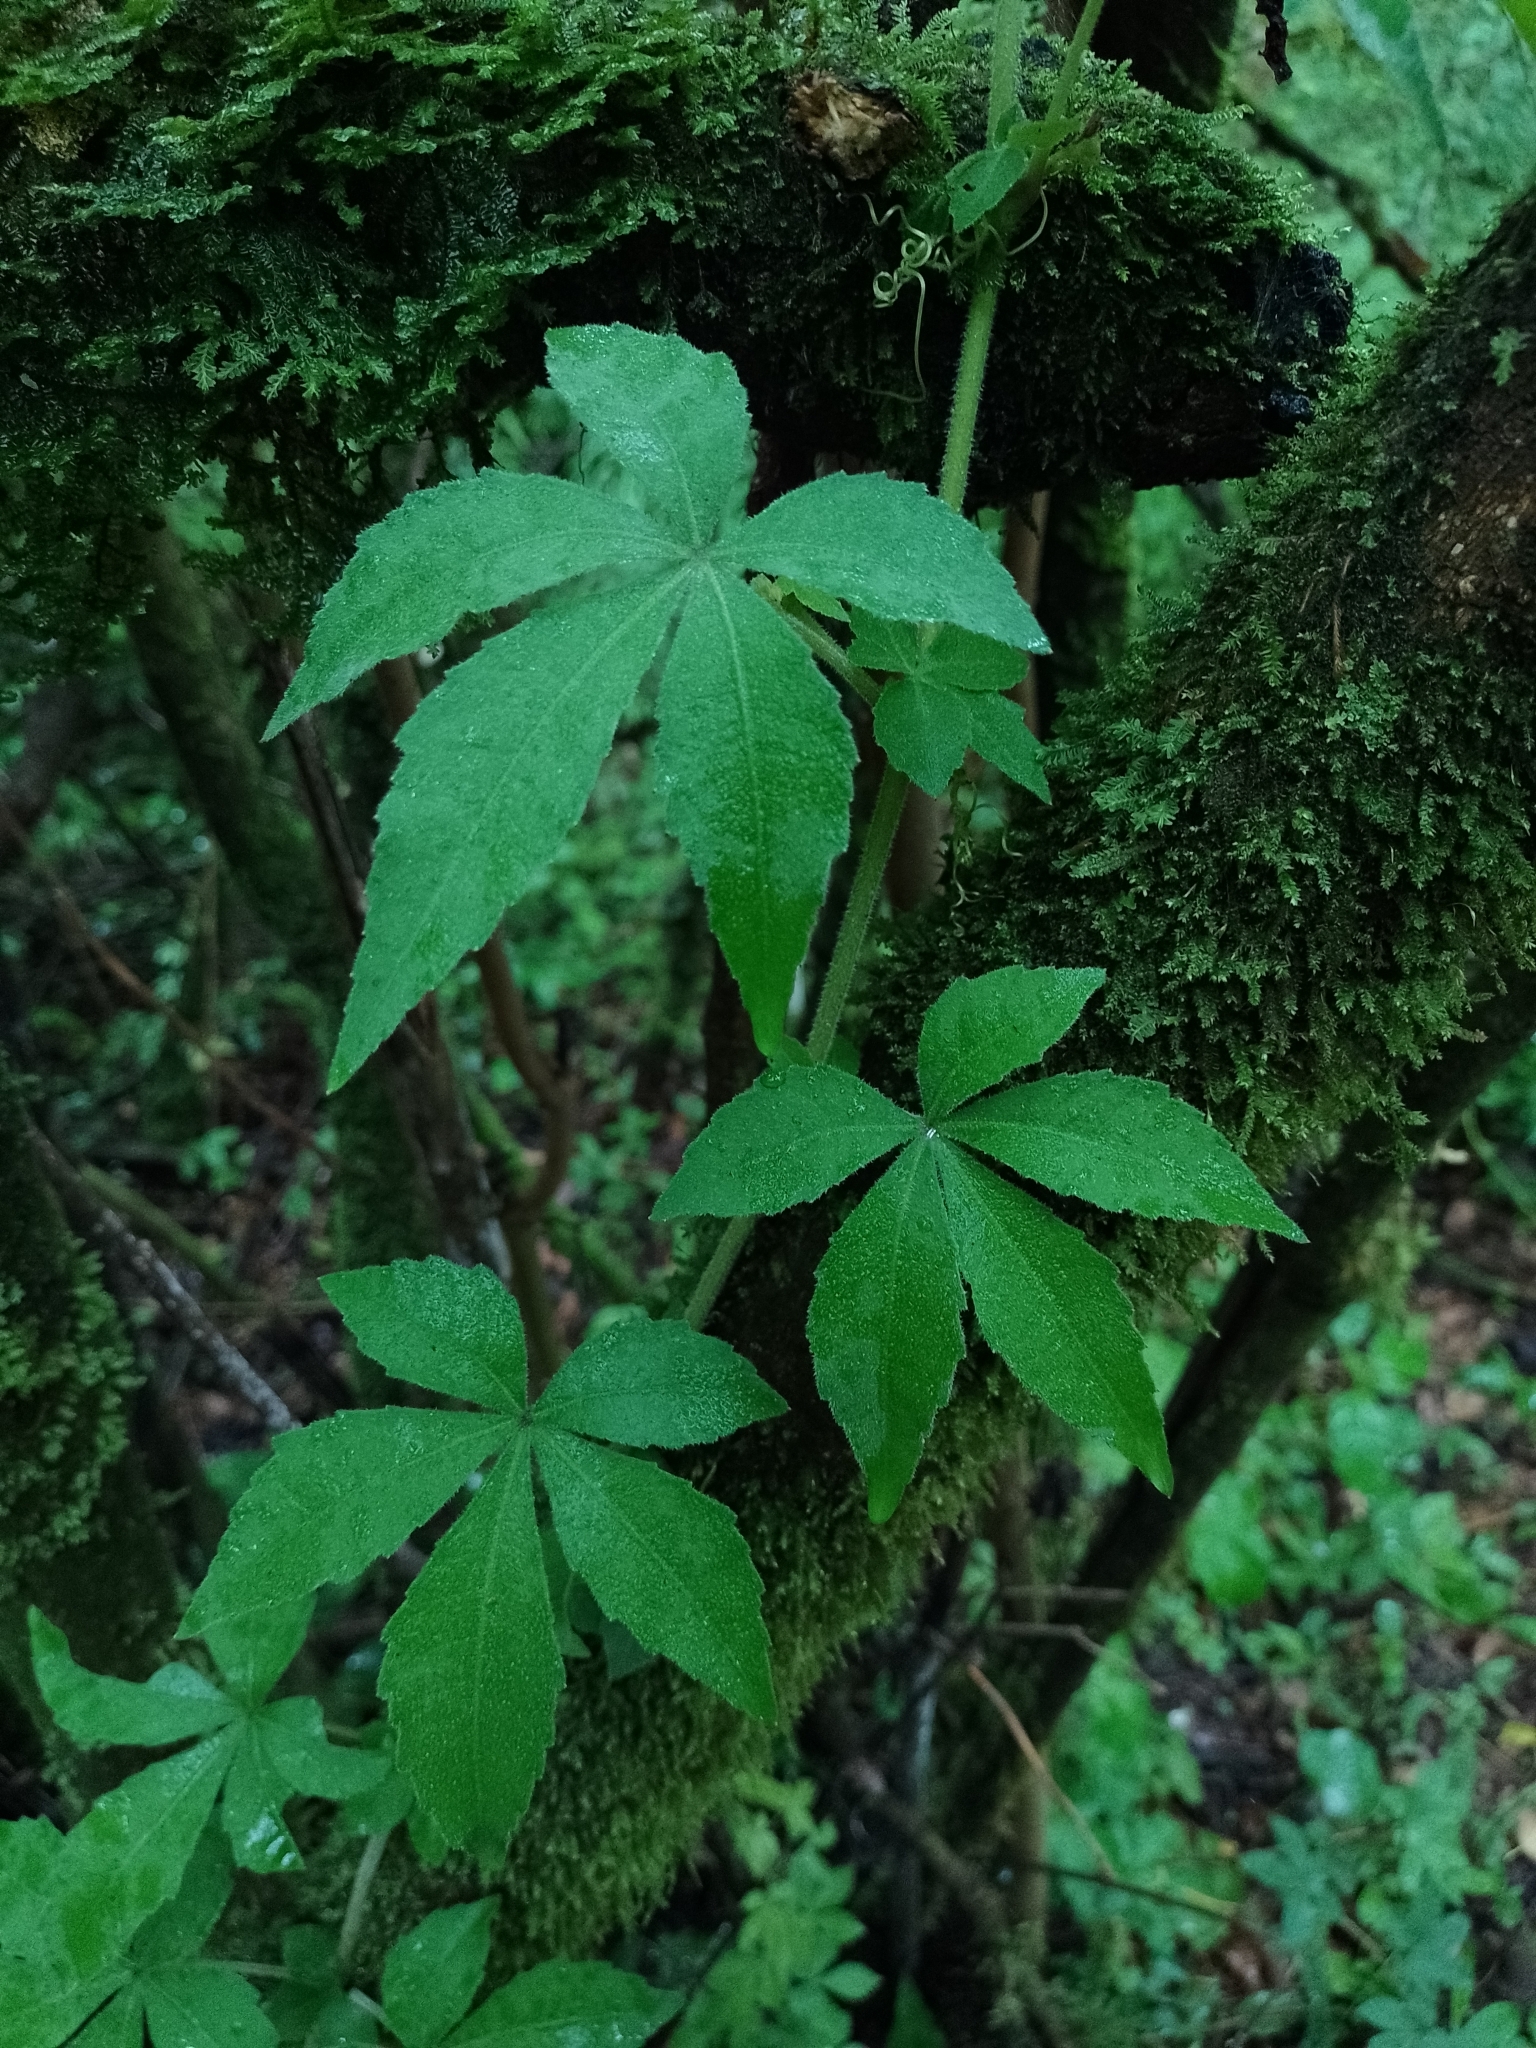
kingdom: Plantae
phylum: Tracheophyta
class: Magnoliopsida
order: Vitales
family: Vitaceae
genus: Clematicissus
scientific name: Clematicissus striata
